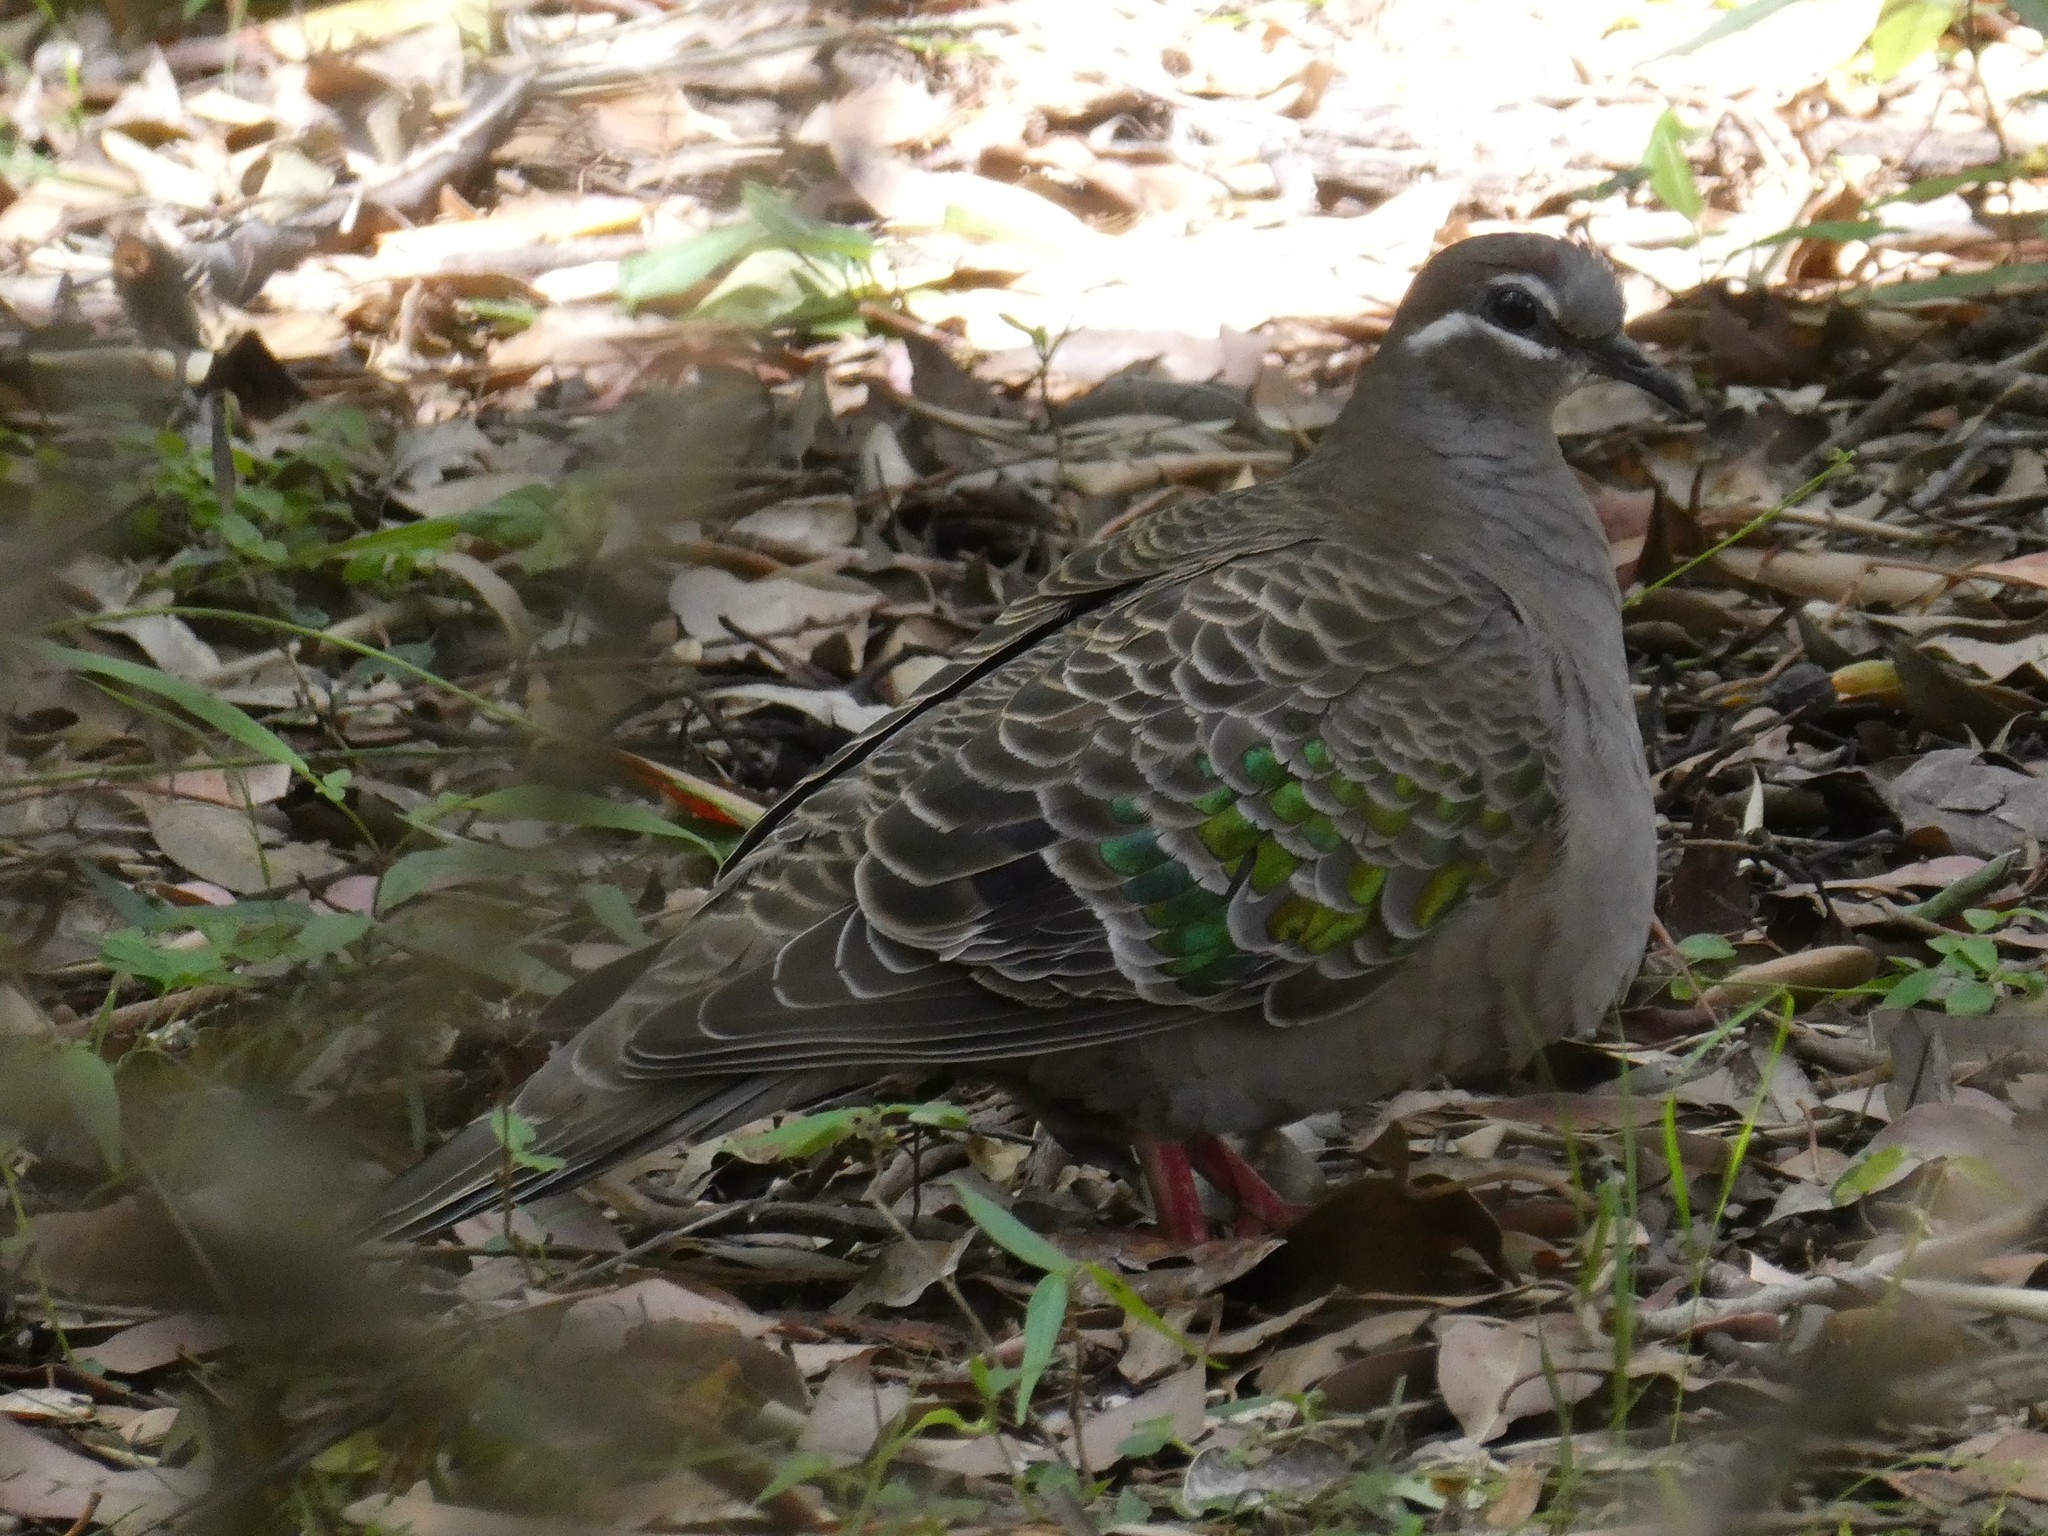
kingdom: Animalia
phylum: Chordata
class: Aves
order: Columbiformes
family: Columbidae
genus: Phaps
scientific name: Phaps chalcoptera
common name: Common bronzewing
